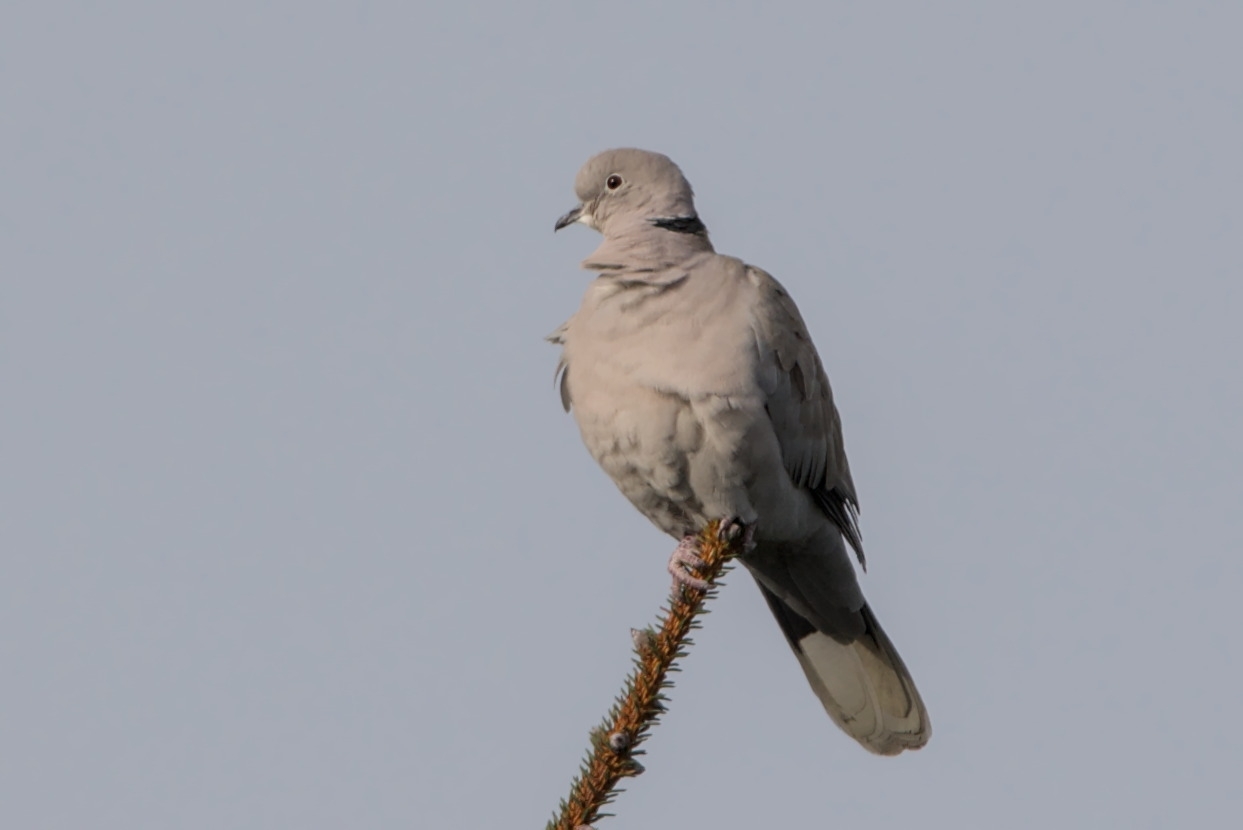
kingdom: Animalia
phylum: Chordata
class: Aves
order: Columbiformes
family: Columbidae
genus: Streptopelia
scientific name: Streptopelia decaocto
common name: Eurasian collared dove
